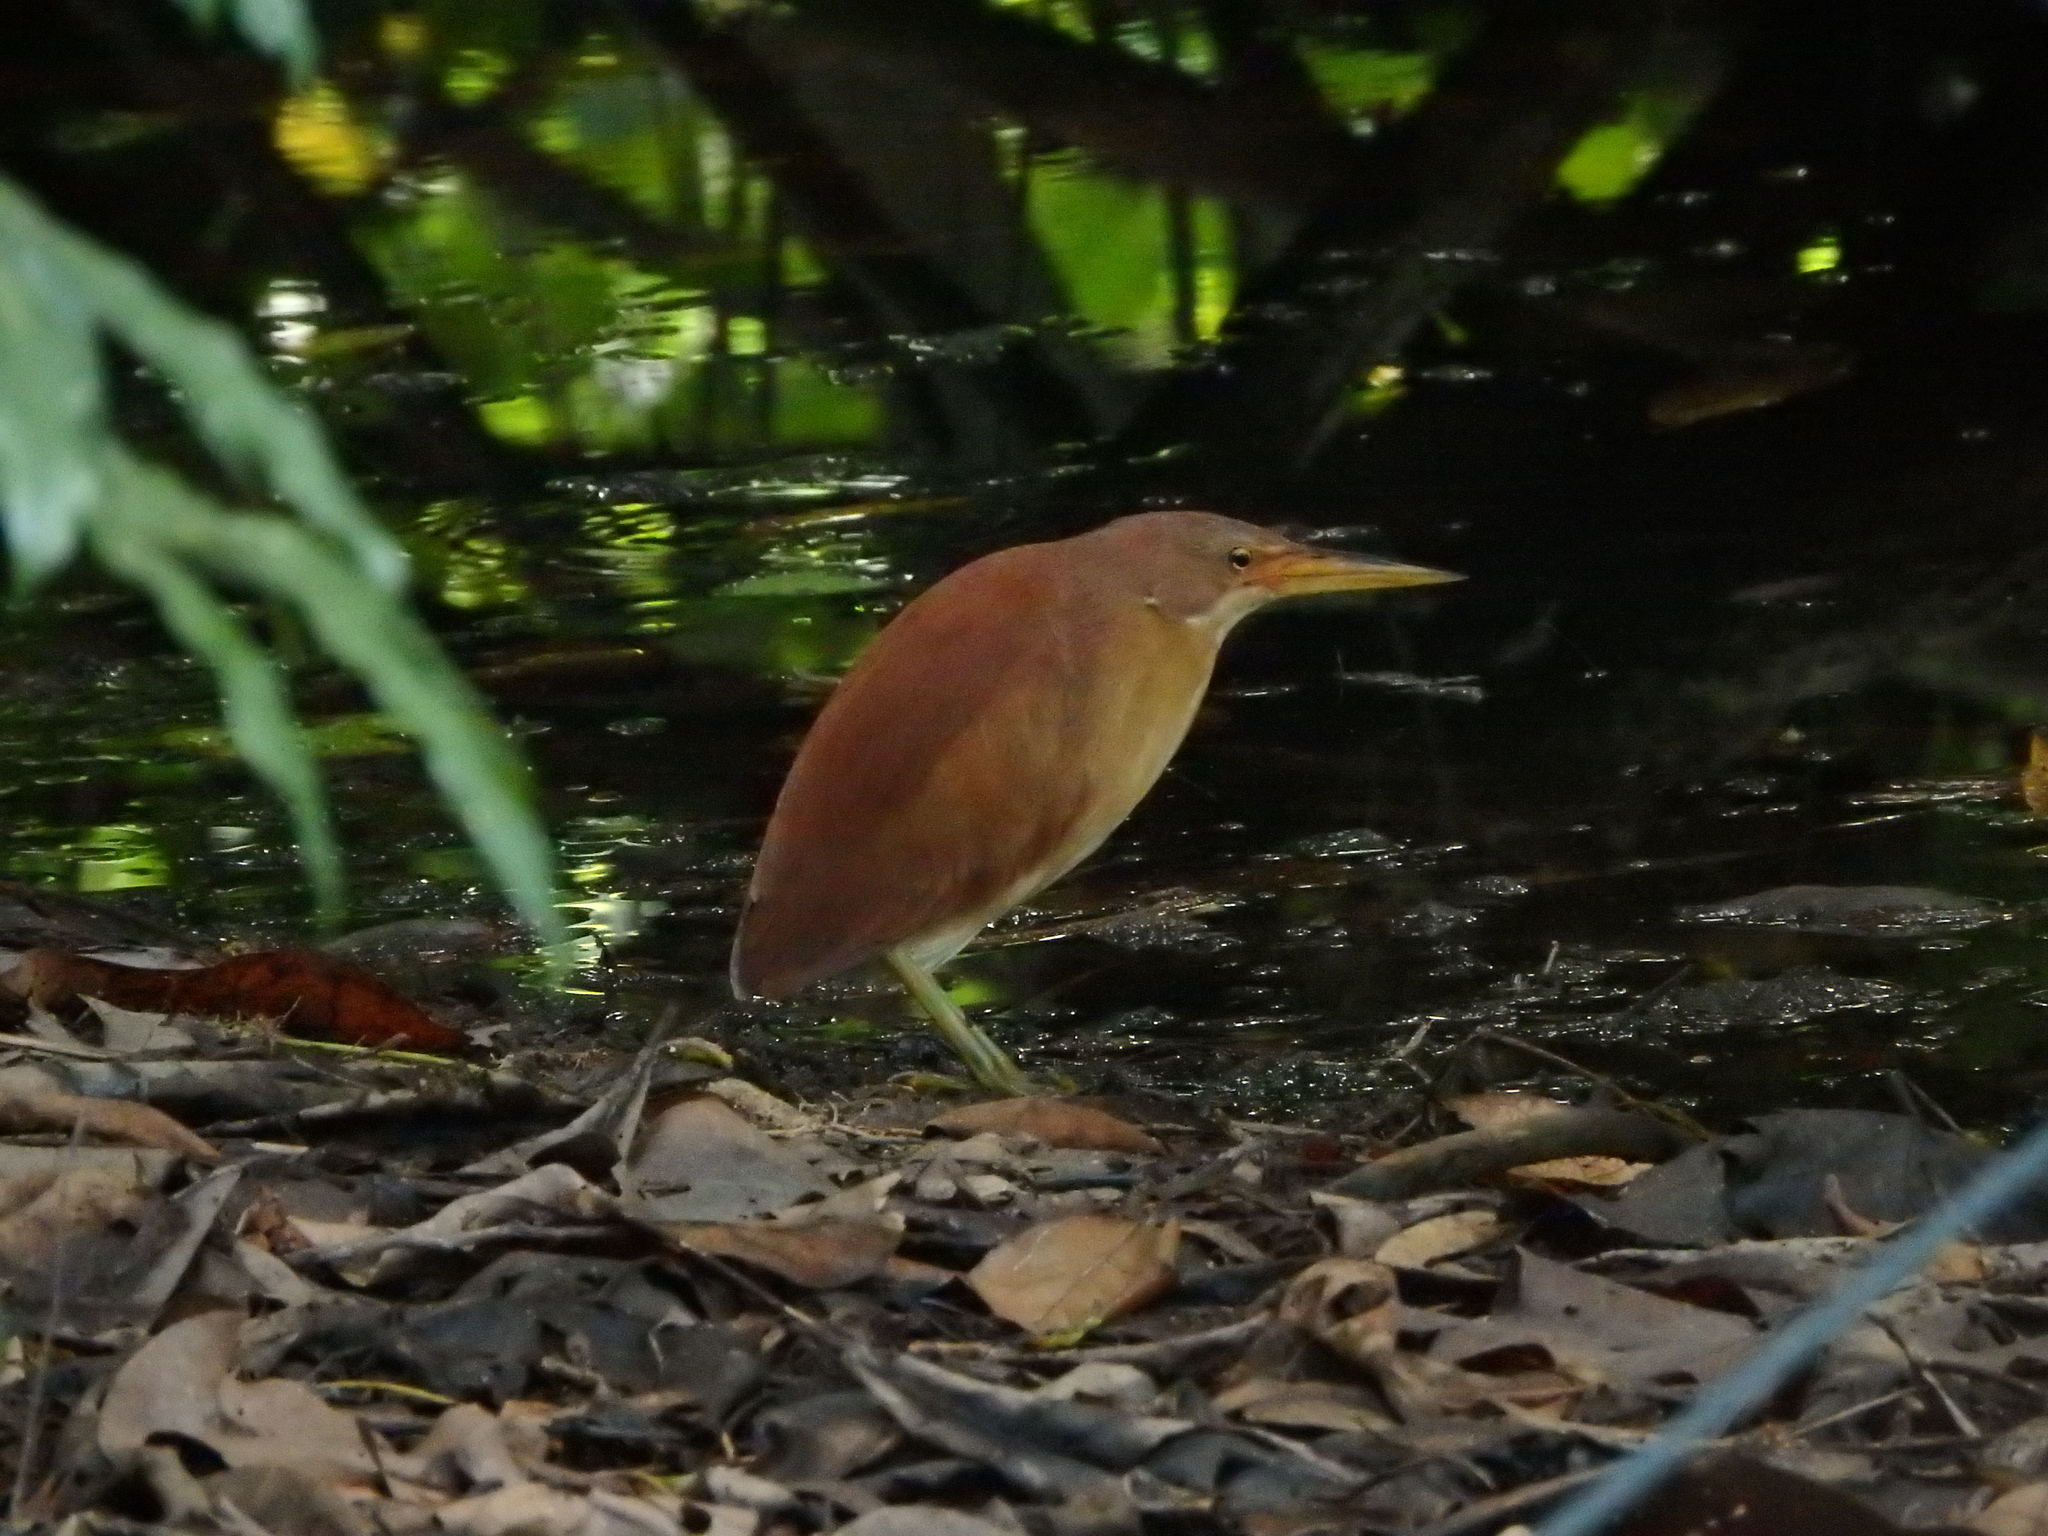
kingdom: Animalia
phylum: Chordata
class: Aves
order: Pelecaniformes
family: Ardeidae
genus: Ixobrychus
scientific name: Ixobrychus cinnamomeus
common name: Cinnamon bittern
